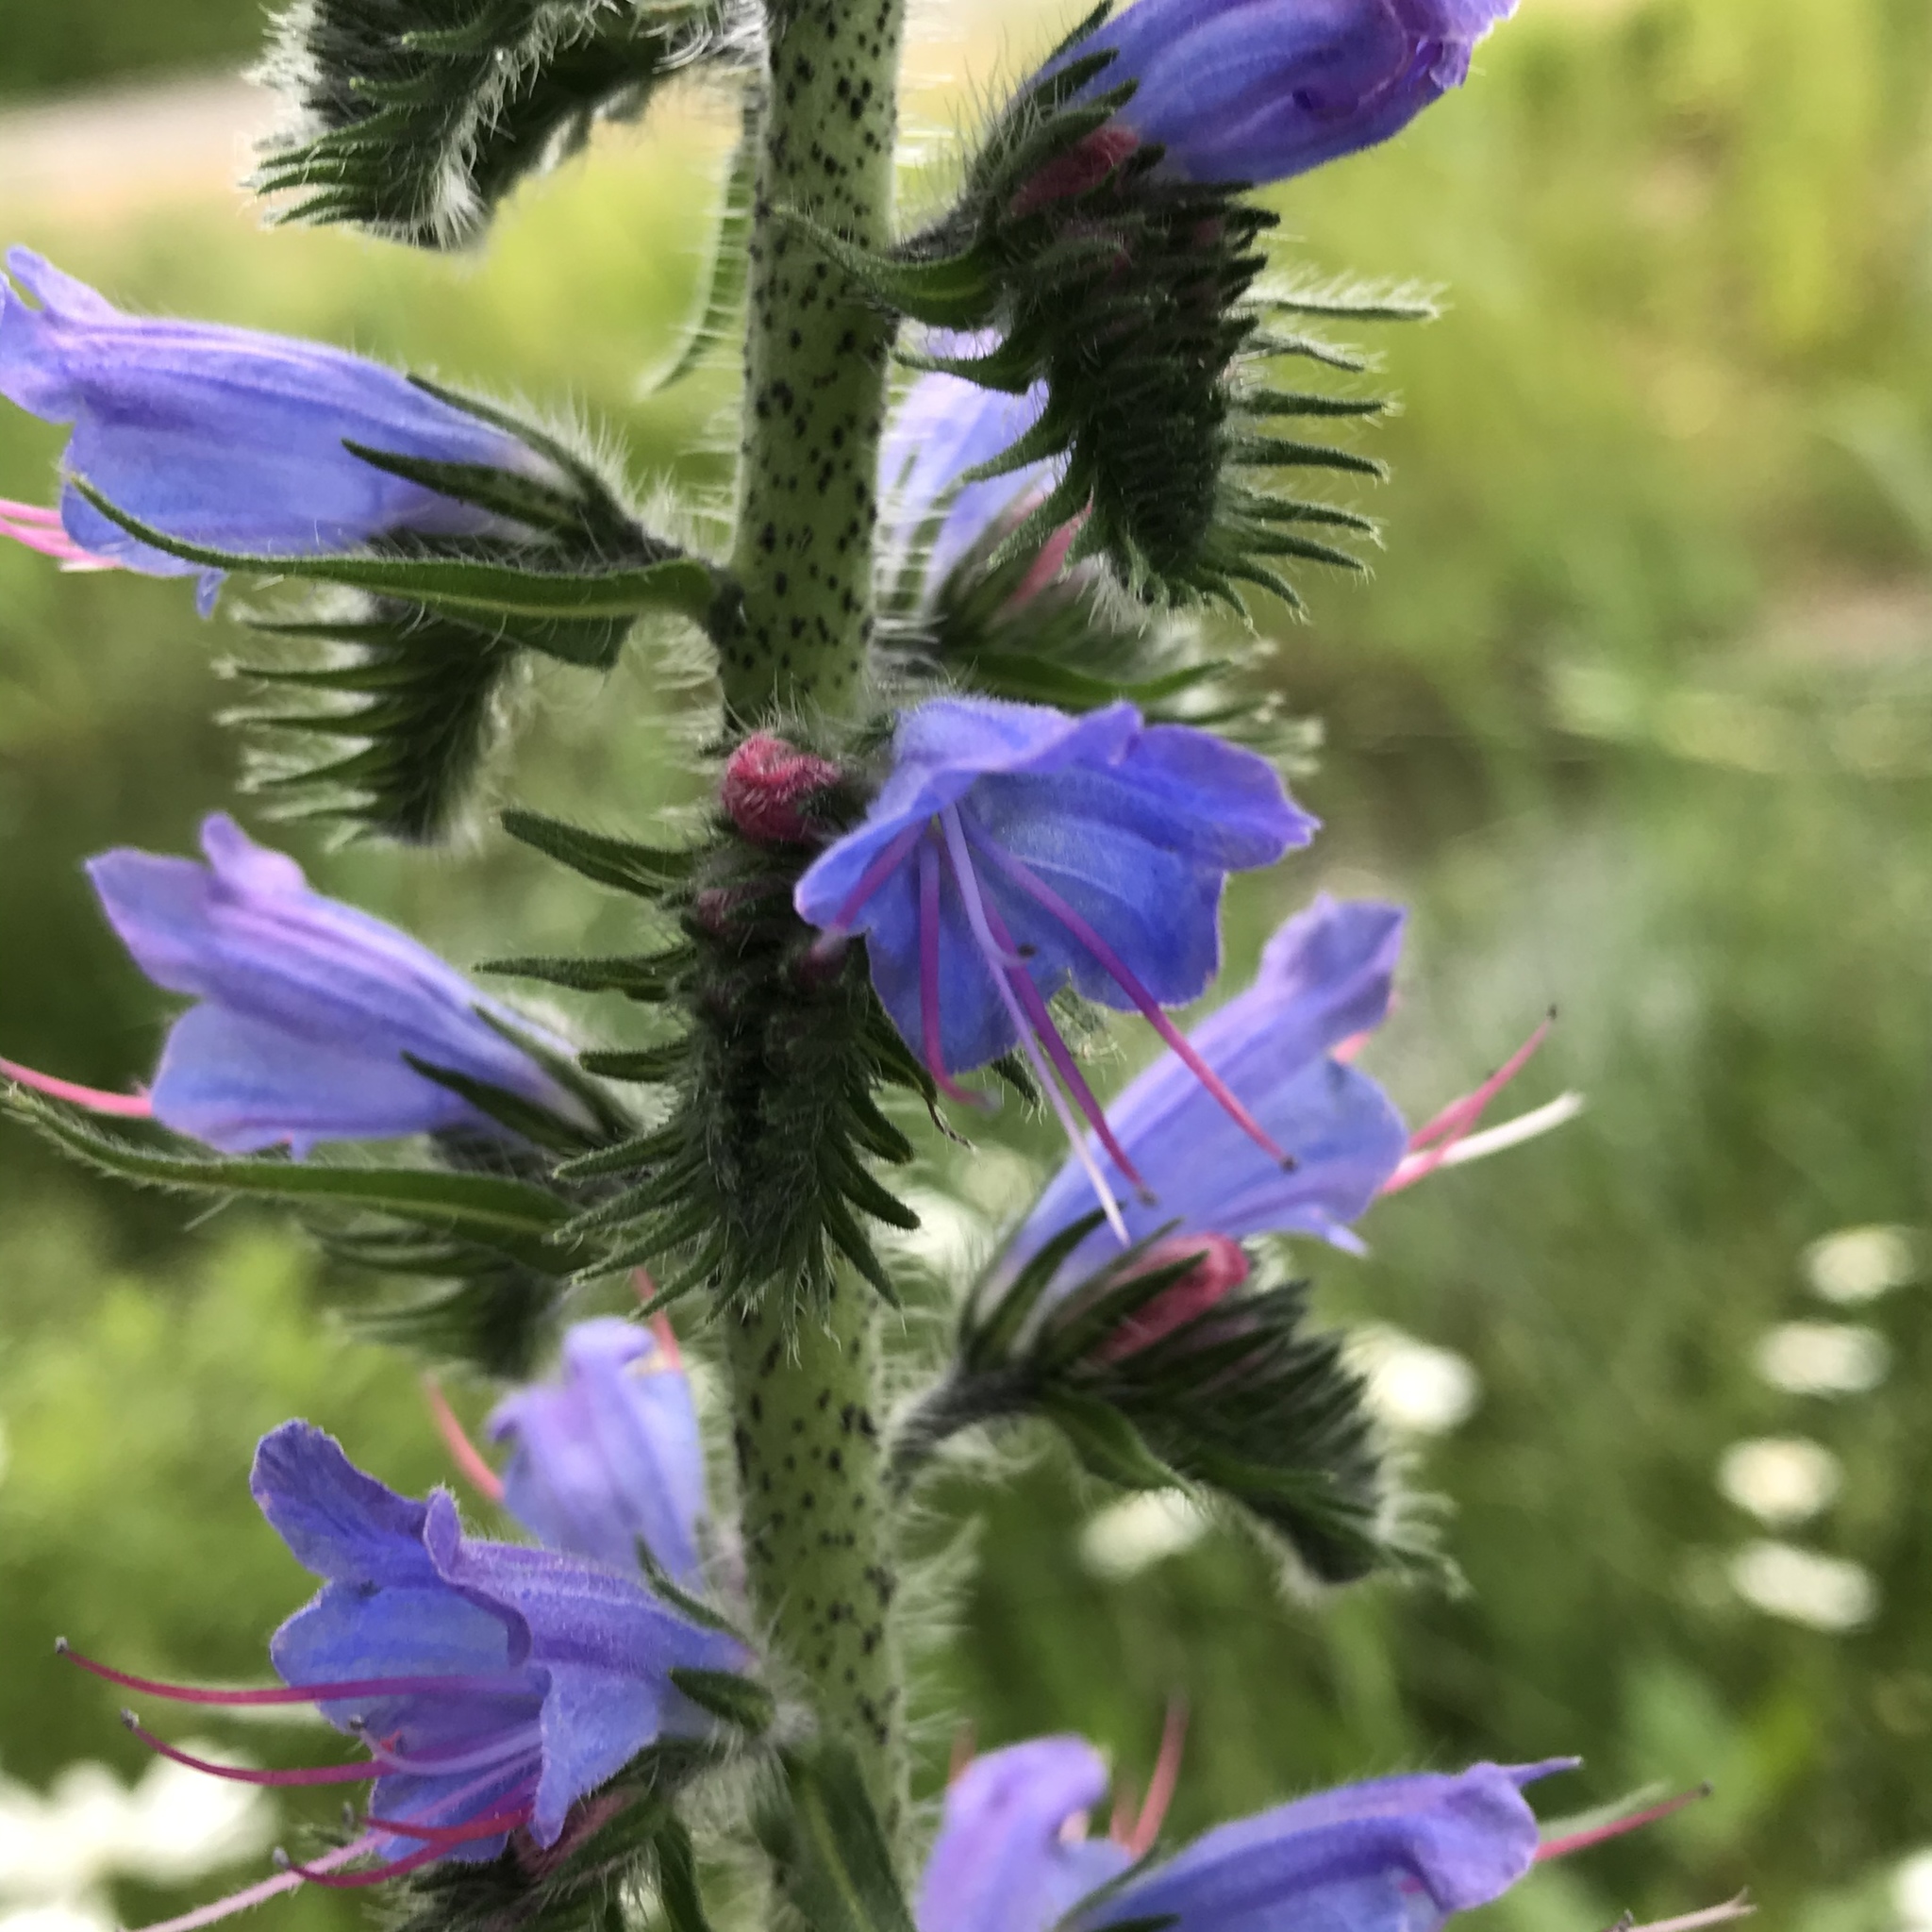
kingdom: Plantae
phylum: Tracheophyta
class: Magnoliopsida
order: Boraginales
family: Boraginaceae
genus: Echium
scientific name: Echium vulgare
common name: Common viper's bugloss
